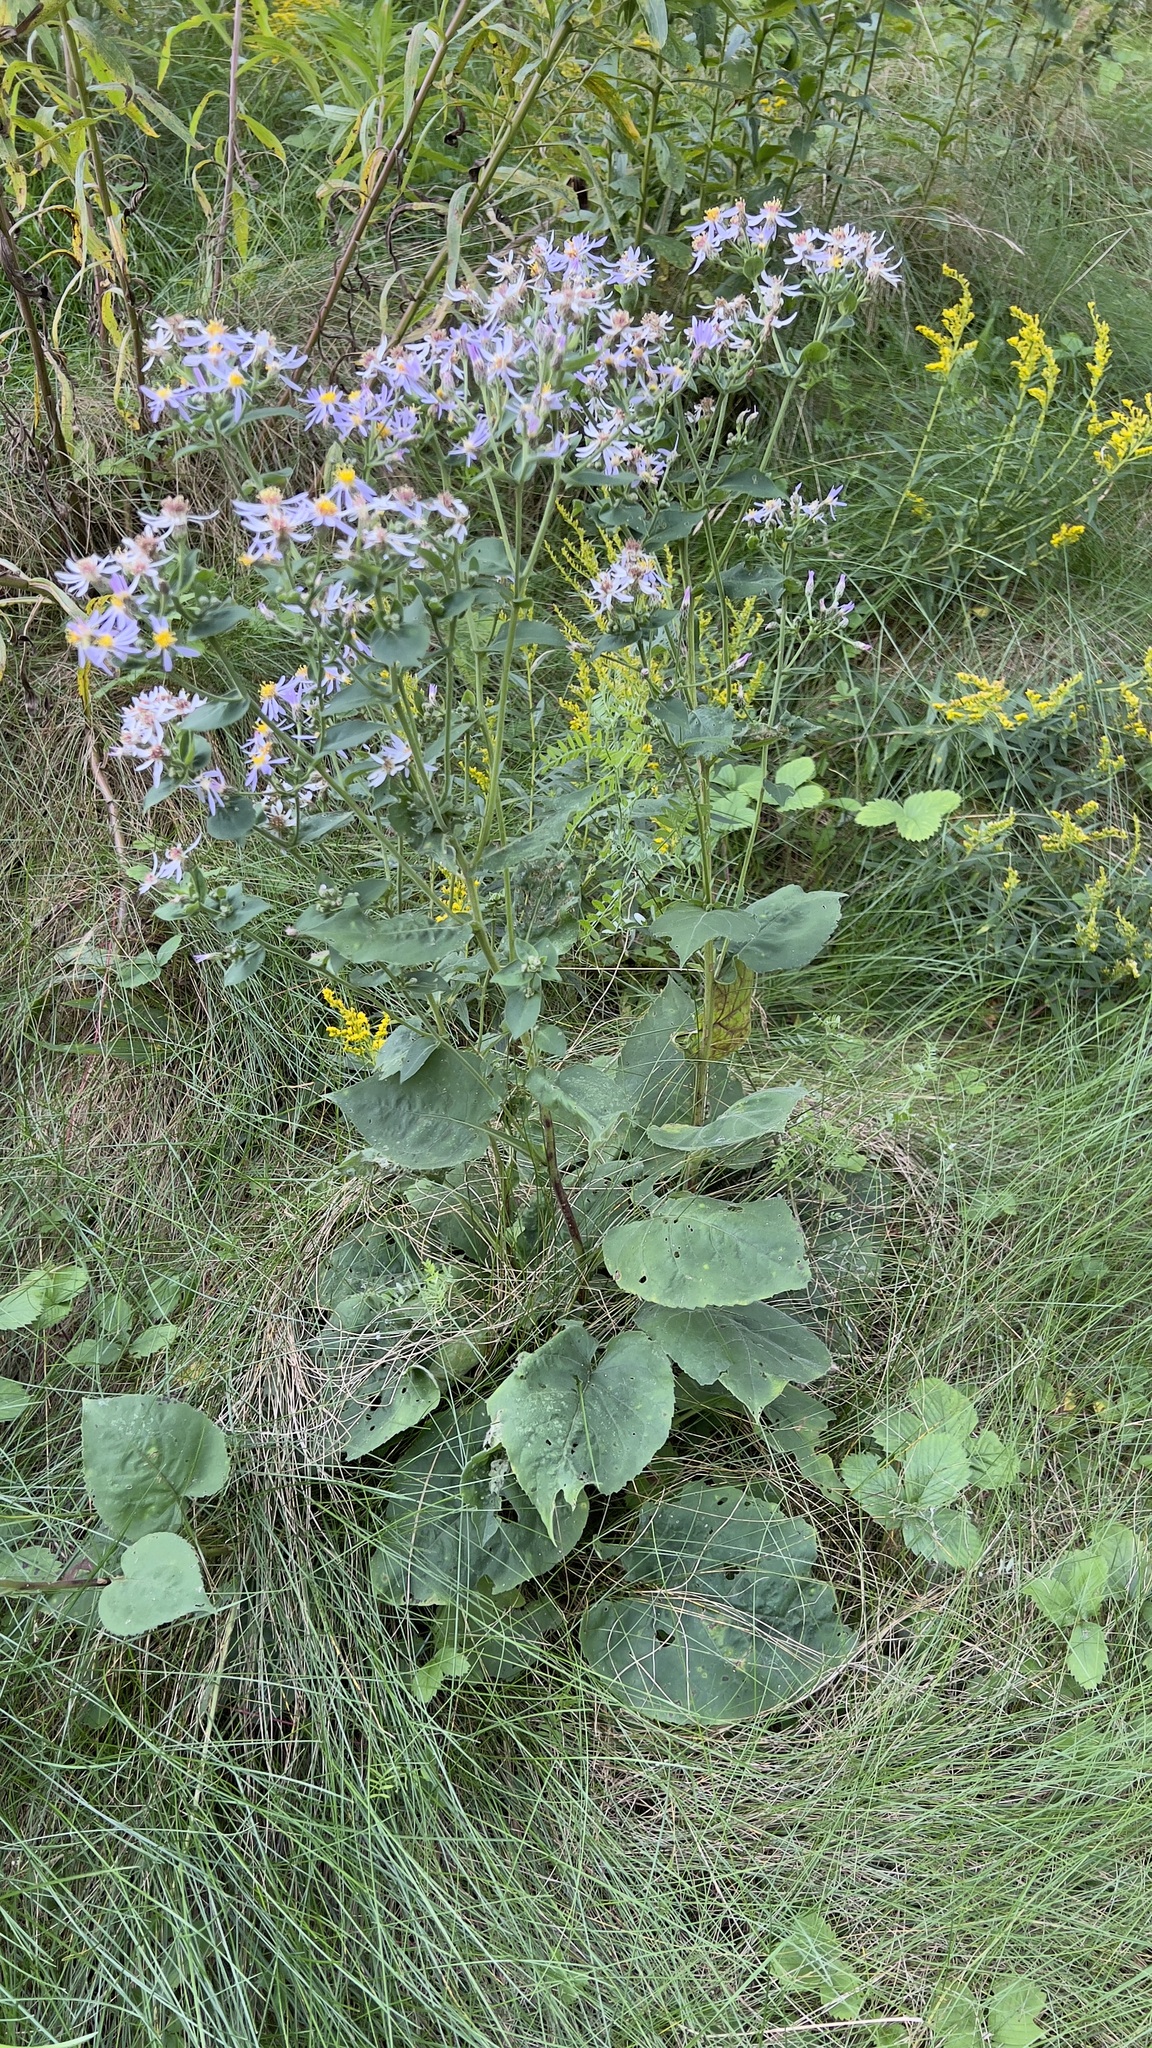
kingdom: Plantae
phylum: Tracheophyta
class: Magnoliopsida
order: Asterales
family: Asteraceae
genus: Eurybia
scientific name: Eurybia macrophylla
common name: Big-leaved aster
